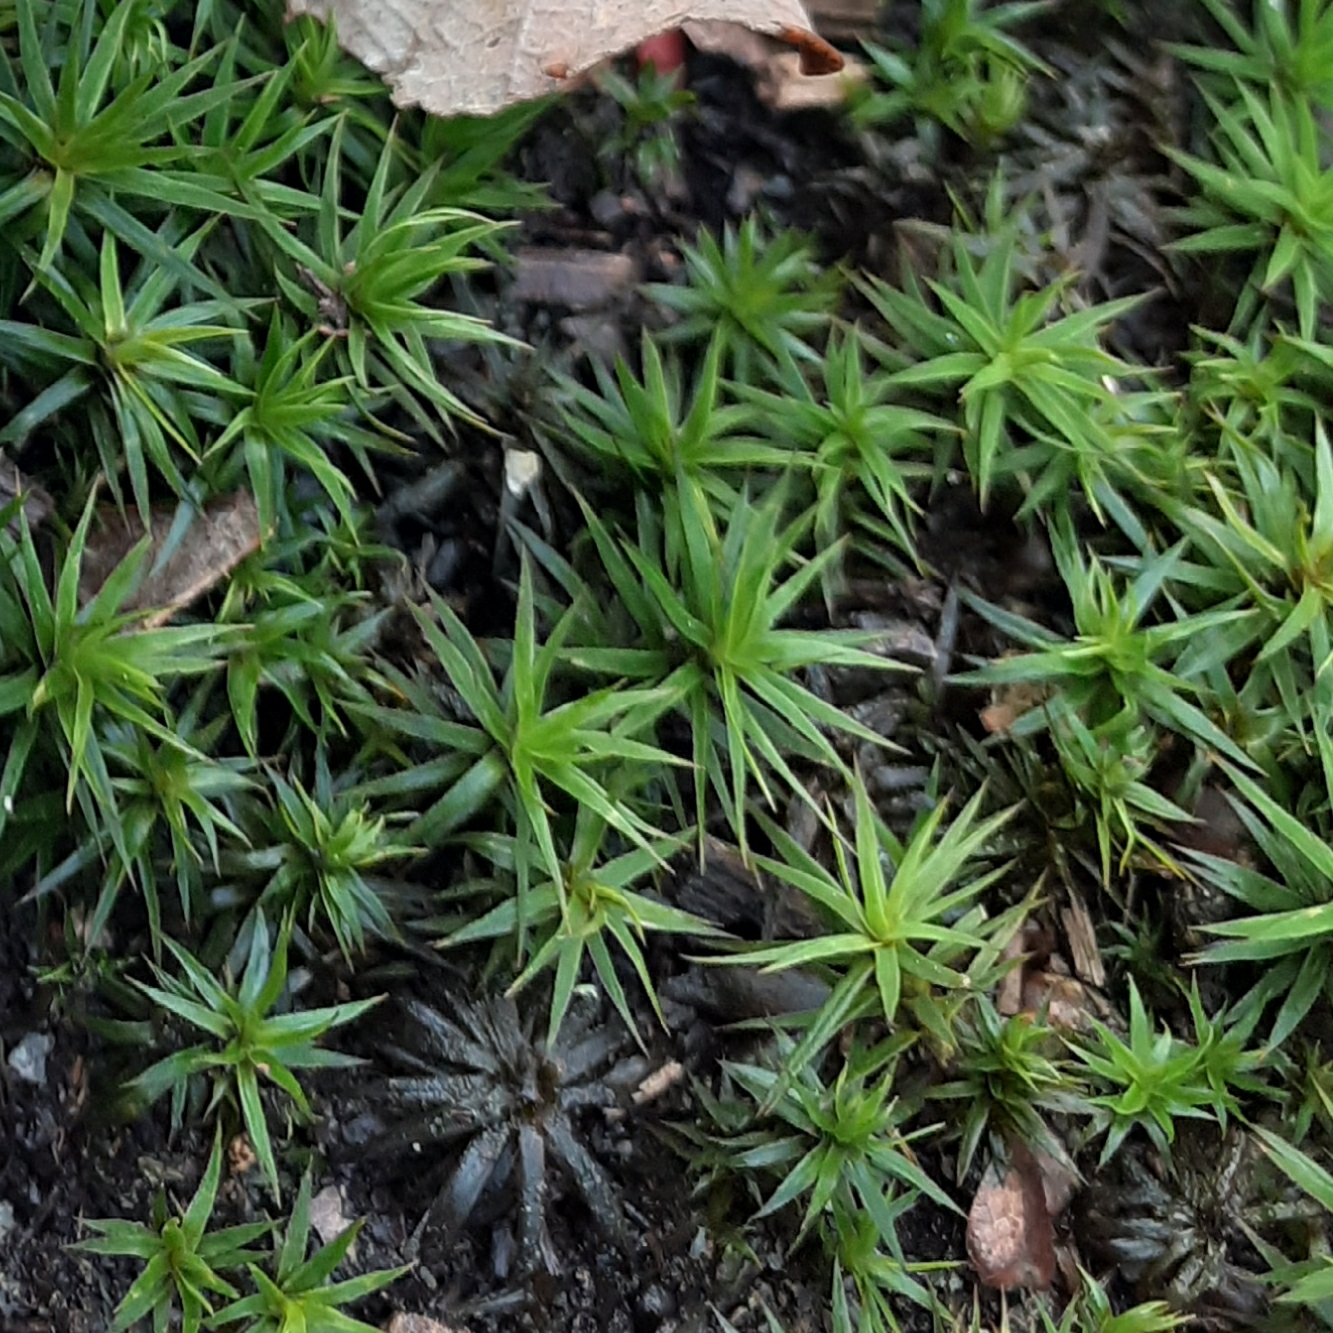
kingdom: Plantae
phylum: Bryophyta
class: Polytrichopsida
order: Polytrichales
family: Polytrichaceae
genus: Polytrichum
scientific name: Polytrichum formosum
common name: Bank haircap moss
